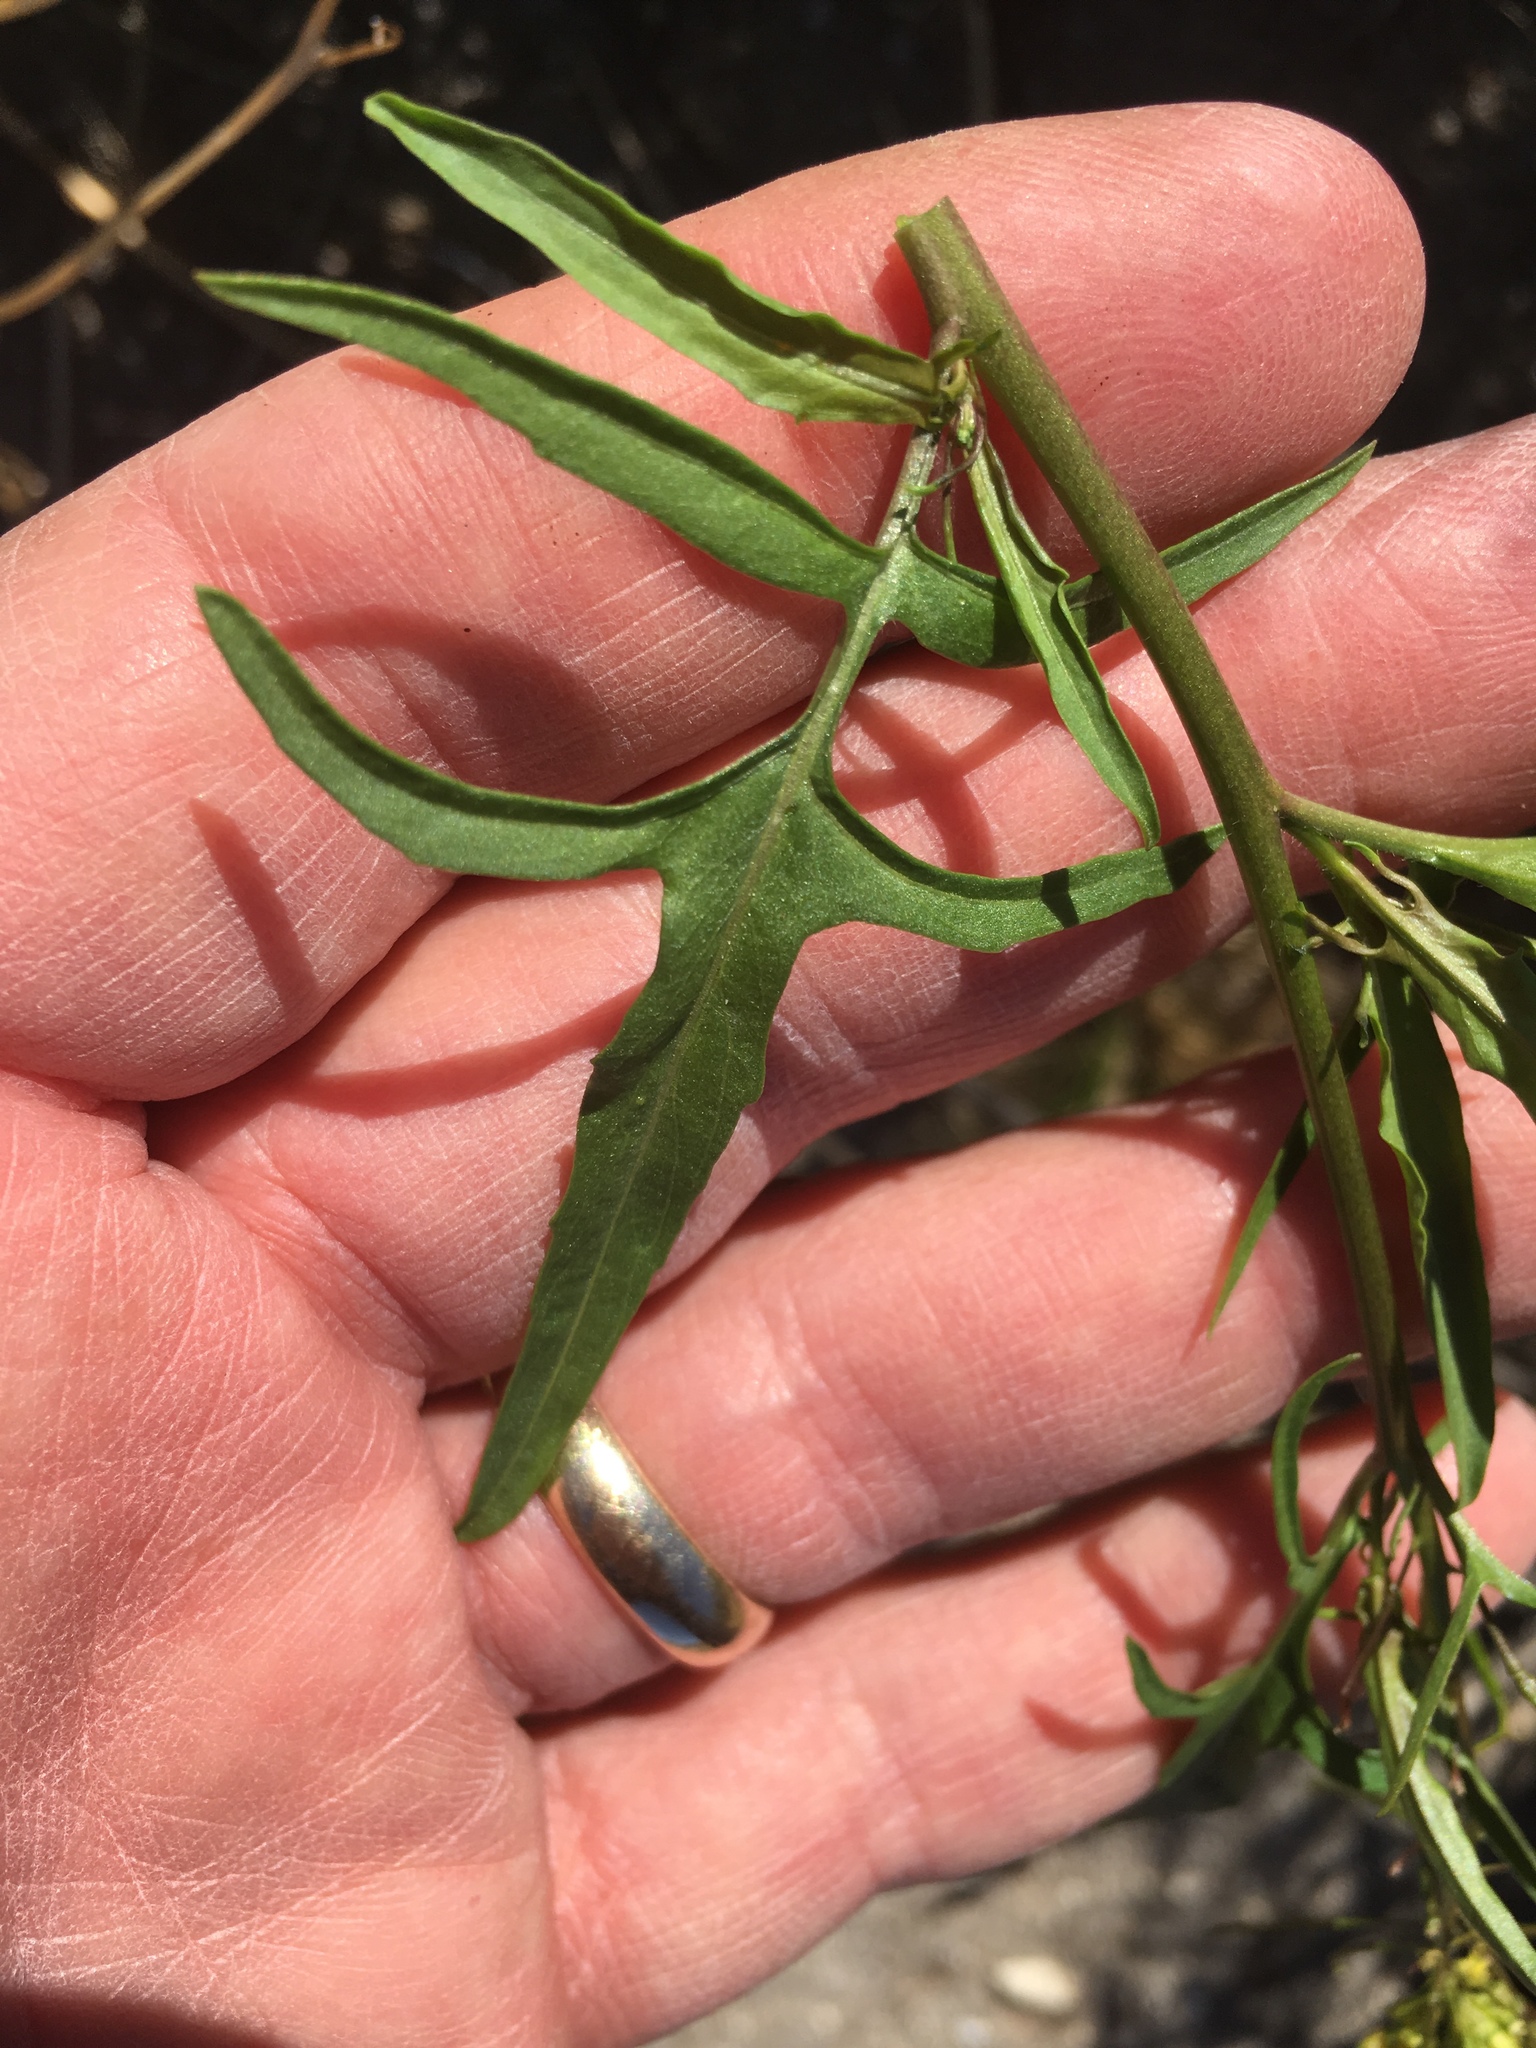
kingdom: Plantae
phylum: Tracheophyta
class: Magnoliopsida
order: Brassicales
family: Brassicaceae
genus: Sisymbrium
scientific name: Sisymbrium irio
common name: London rocket
